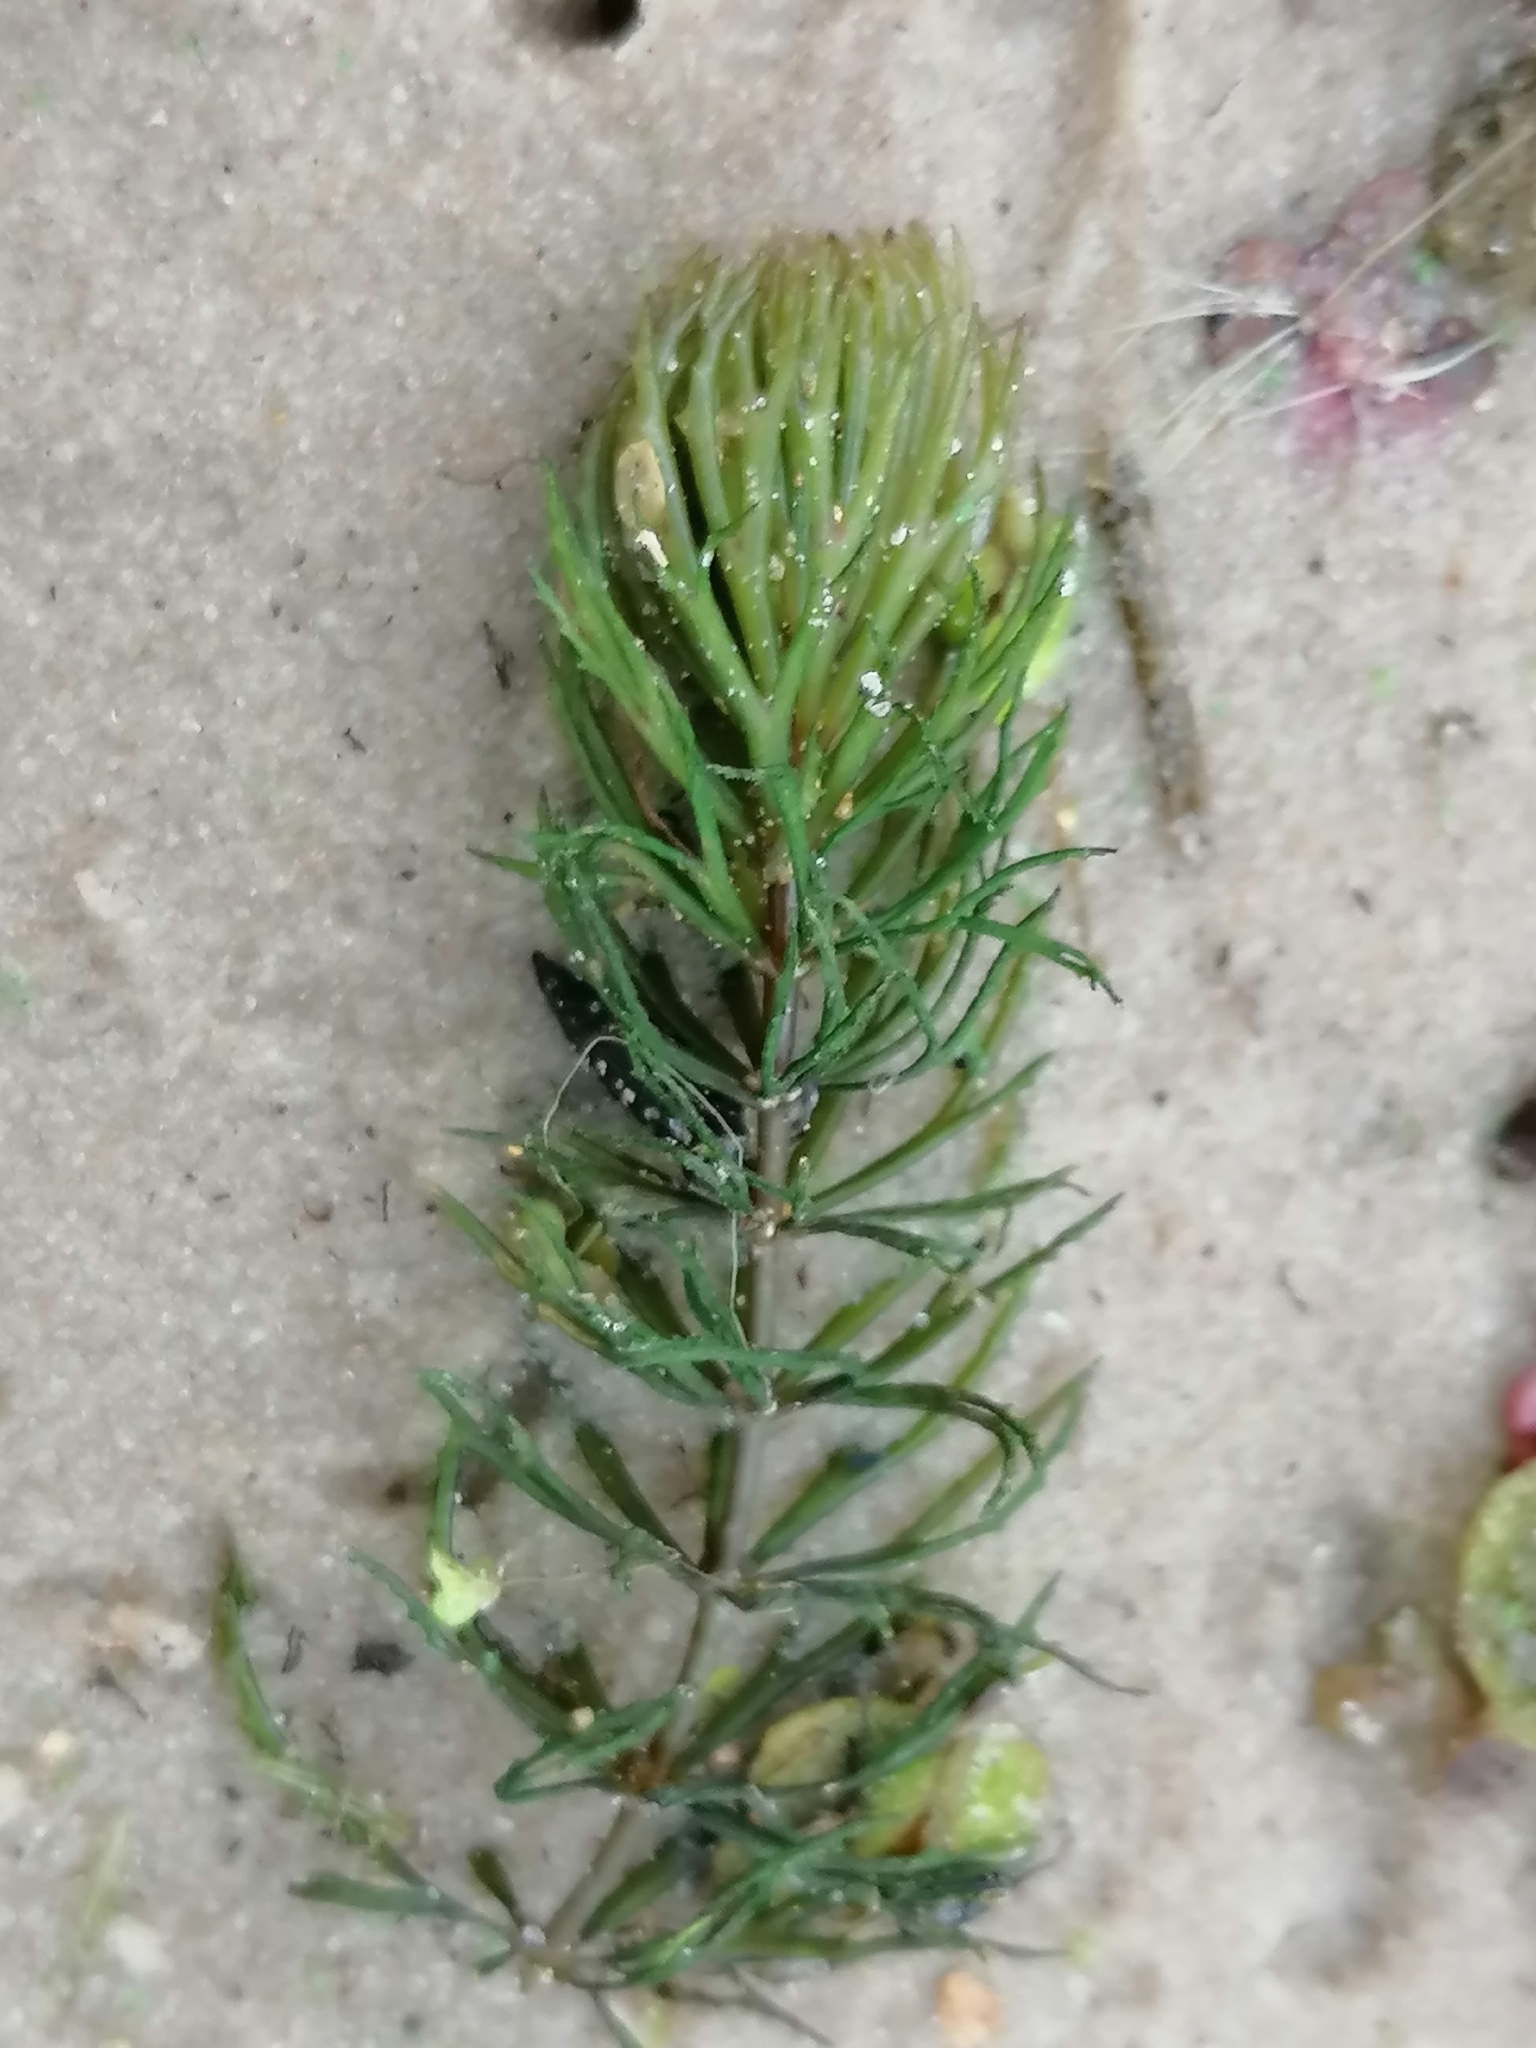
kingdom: Plantae
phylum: Tracheophyta
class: Magnoliopsida
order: Ceratophyllales
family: Ceratophyllaceae
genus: Ceratophyllum
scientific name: Ceratophyllum demersum
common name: Rigid hornwort
